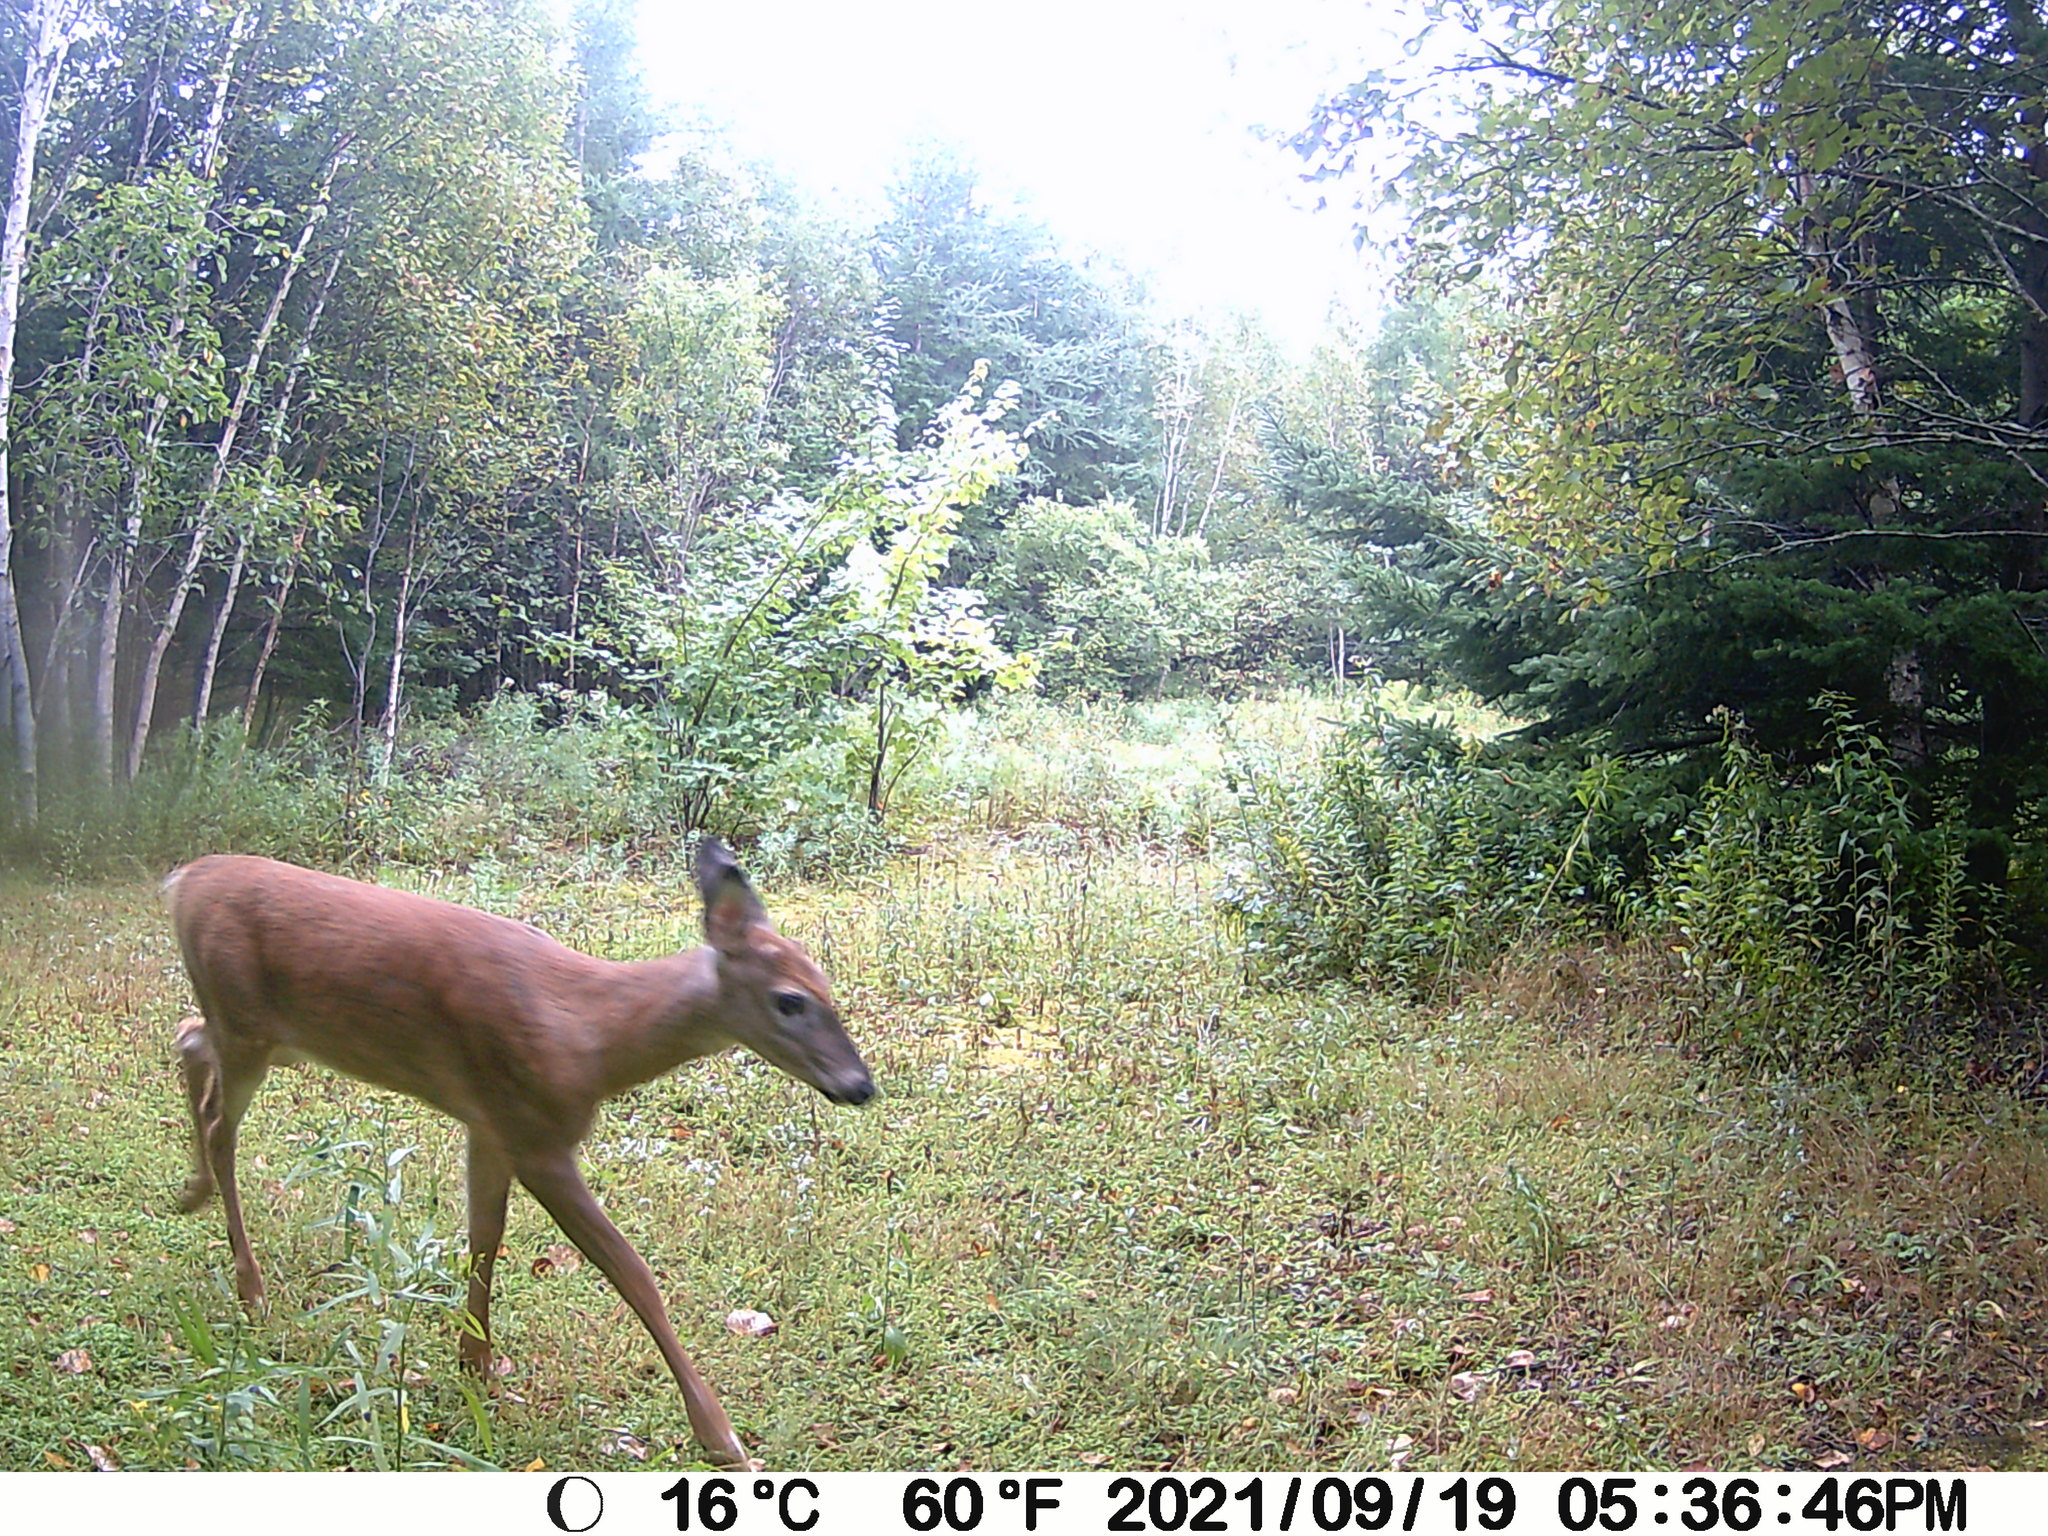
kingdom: Animalia
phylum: Chordata
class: Mammalia
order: Artiodactyla
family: Cervidae
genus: Odocoileus
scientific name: Odocoileus virginianus
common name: White-tailed deer
